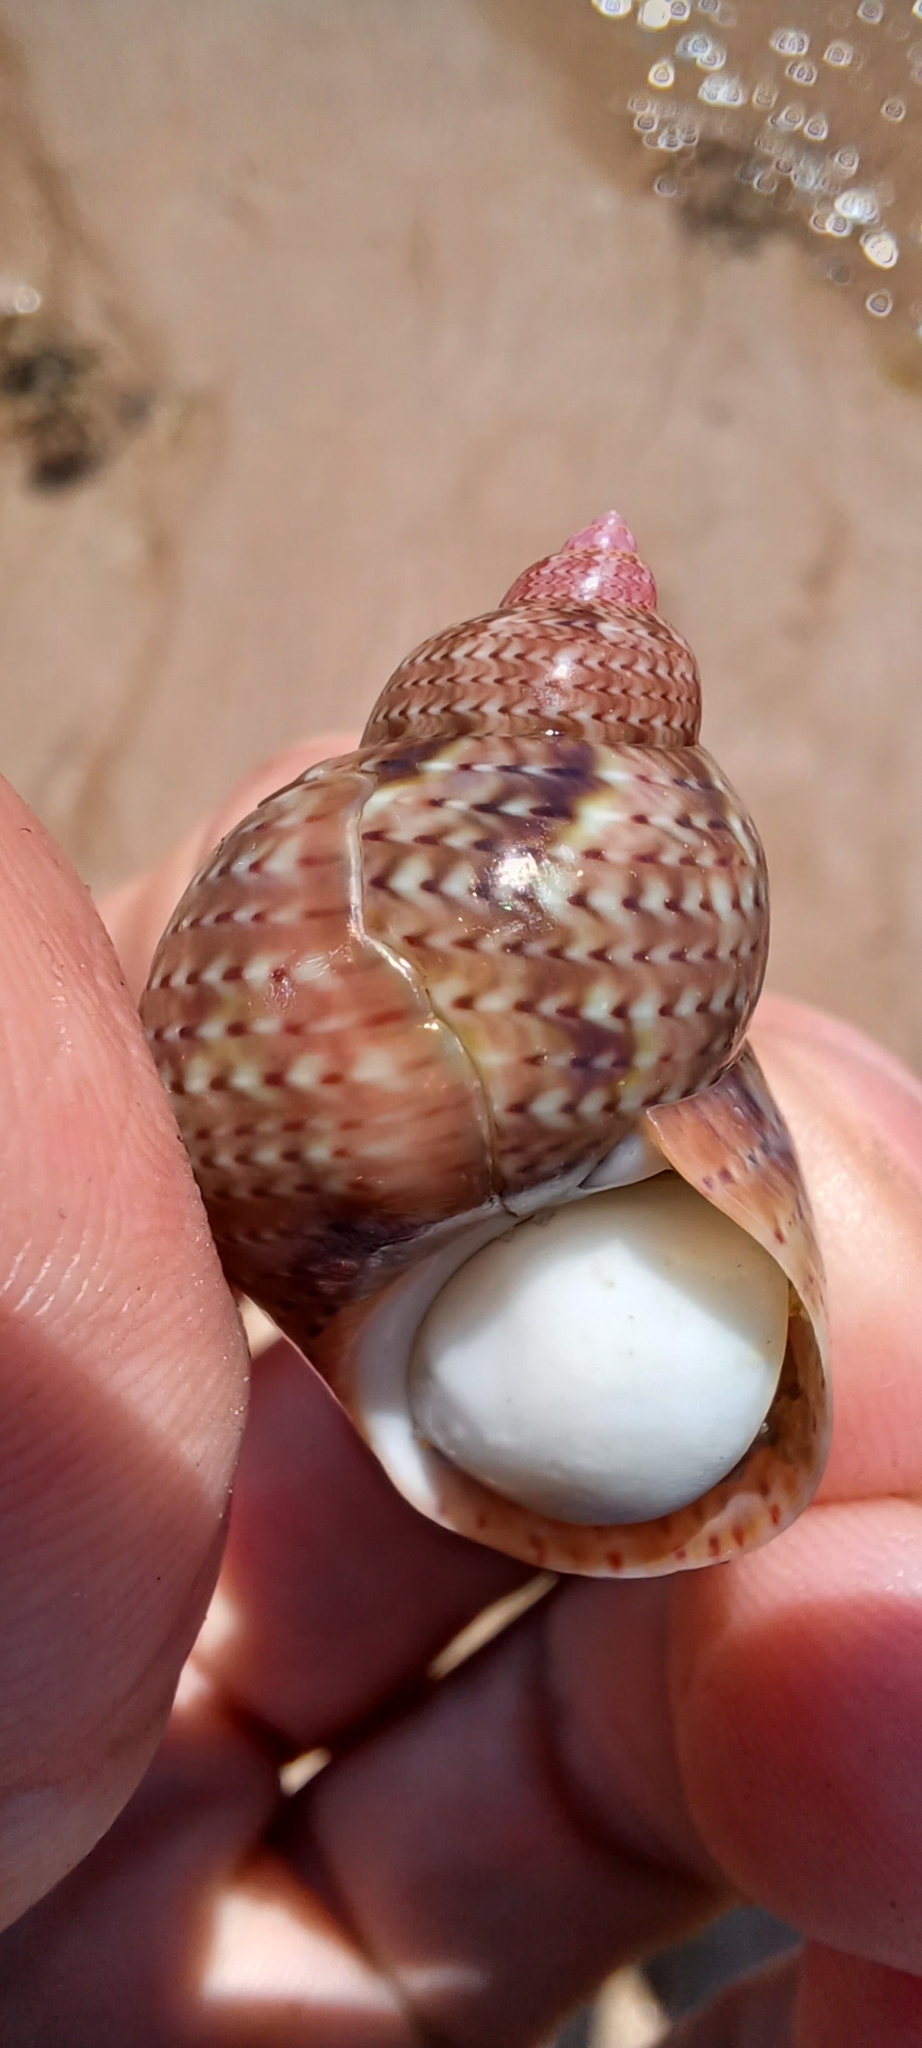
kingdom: Animalia
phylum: Mollusca
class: Gastropoda
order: Trochida
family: Phasianellidae
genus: Phasianella
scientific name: Phasianella ventricosa
